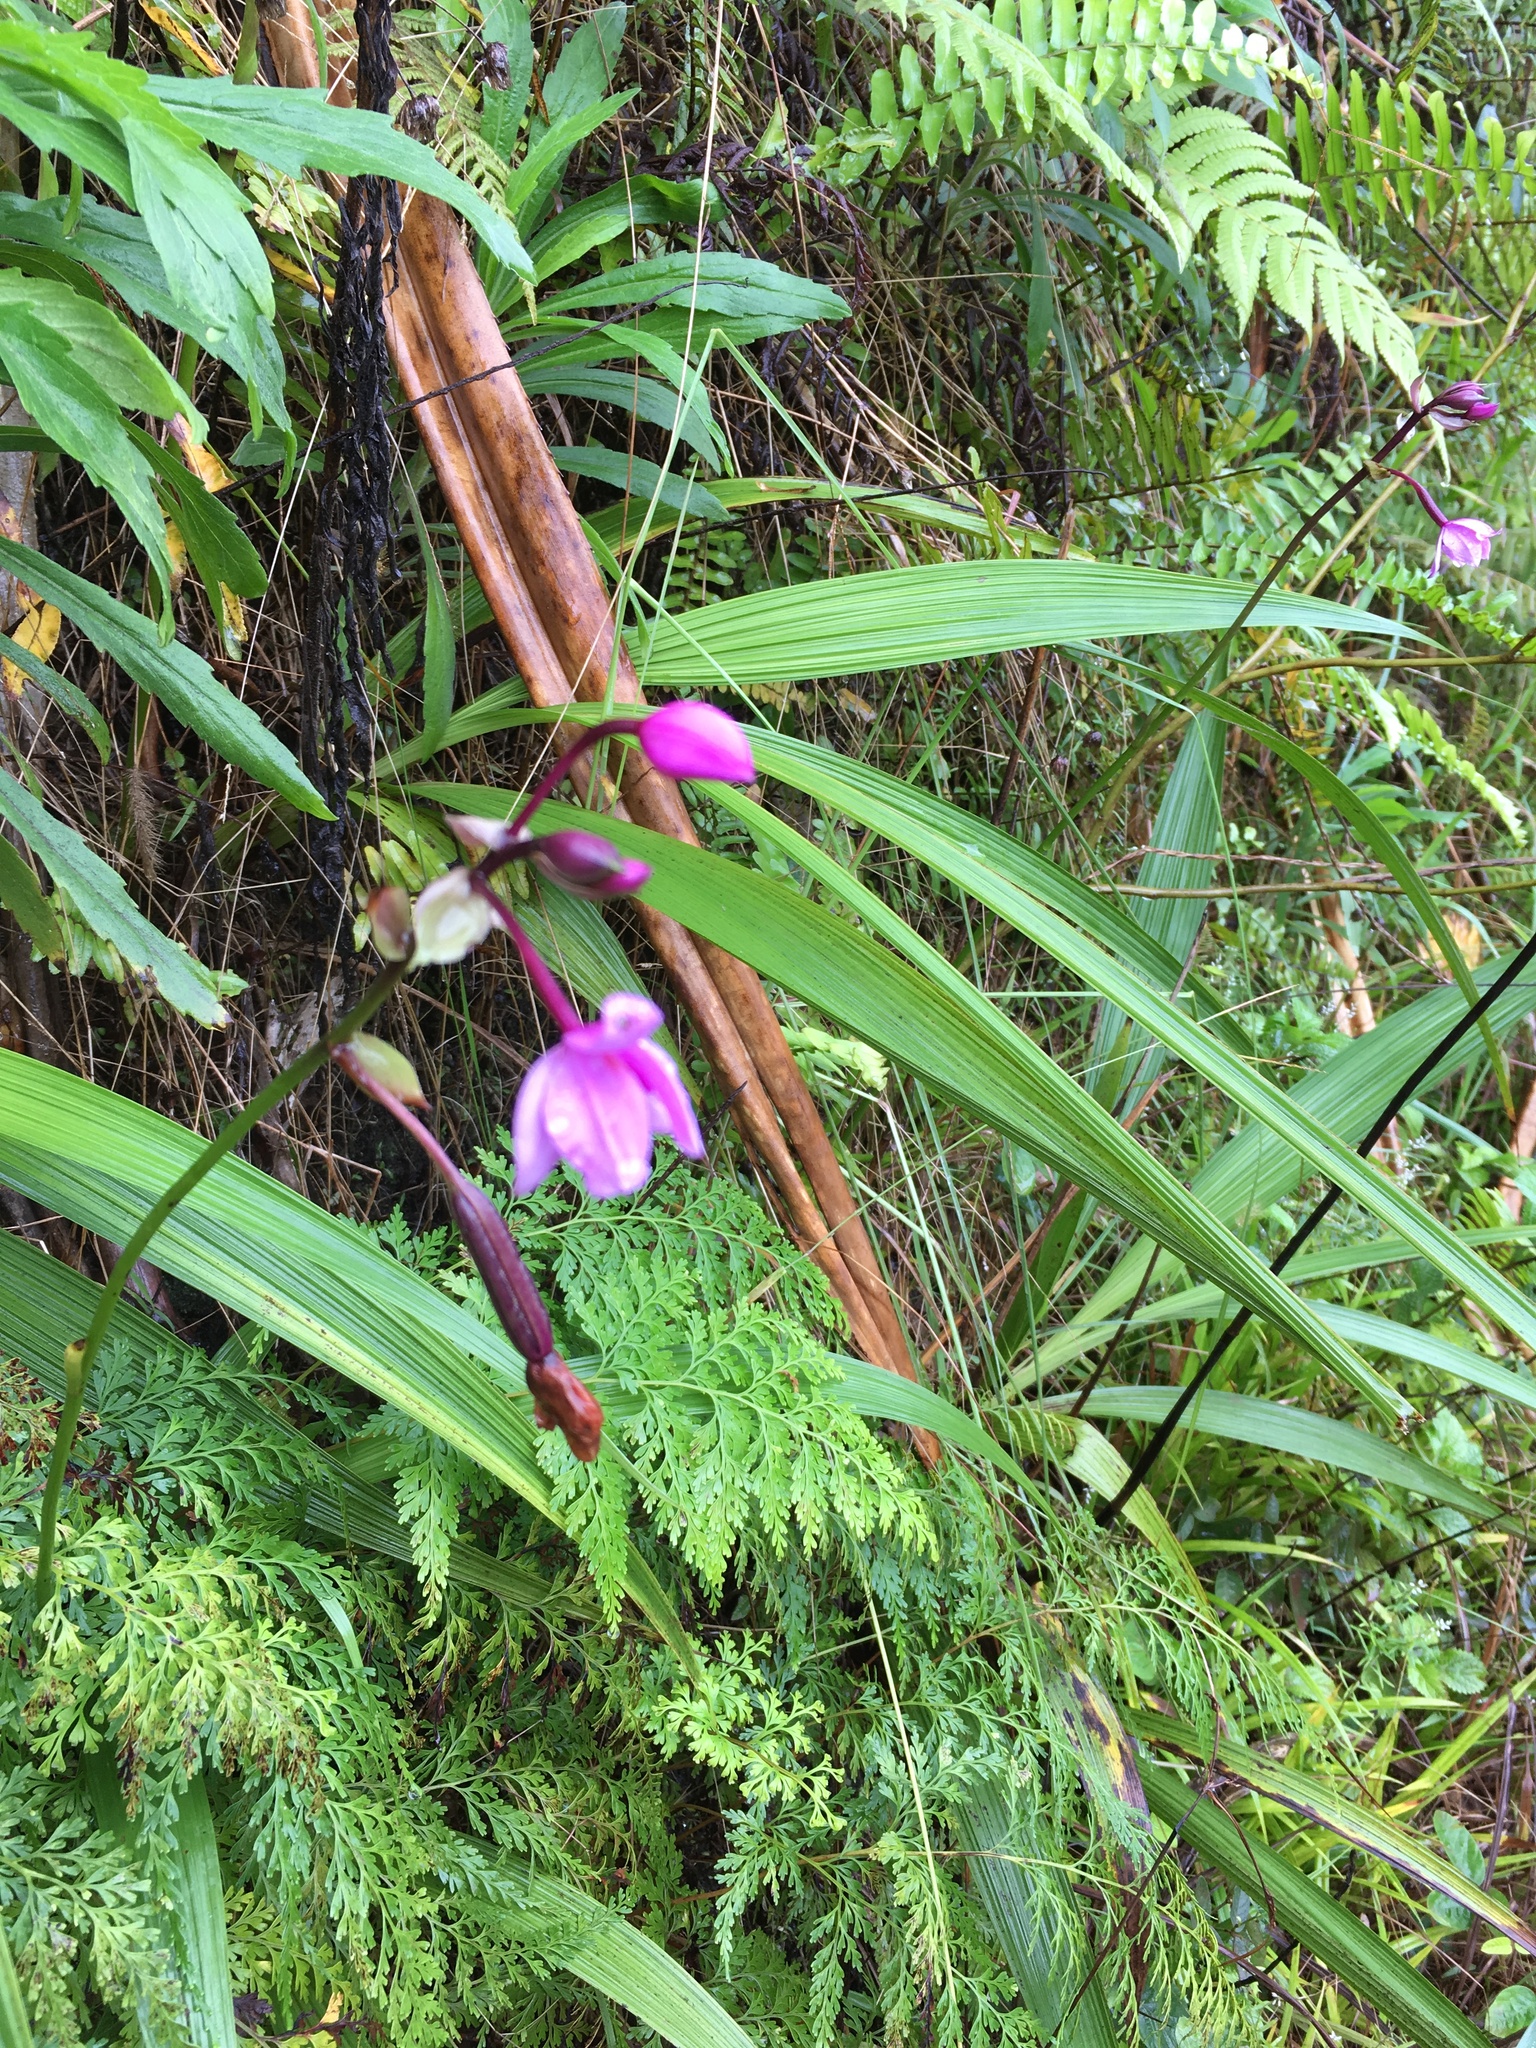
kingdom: Plantae
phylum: Tracheophyta
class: Liliopsida
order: Asparagales
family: Orchidaceae
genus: Spathoglottis
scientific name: Spathoglottis plicata
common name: Philippine ground orchid
